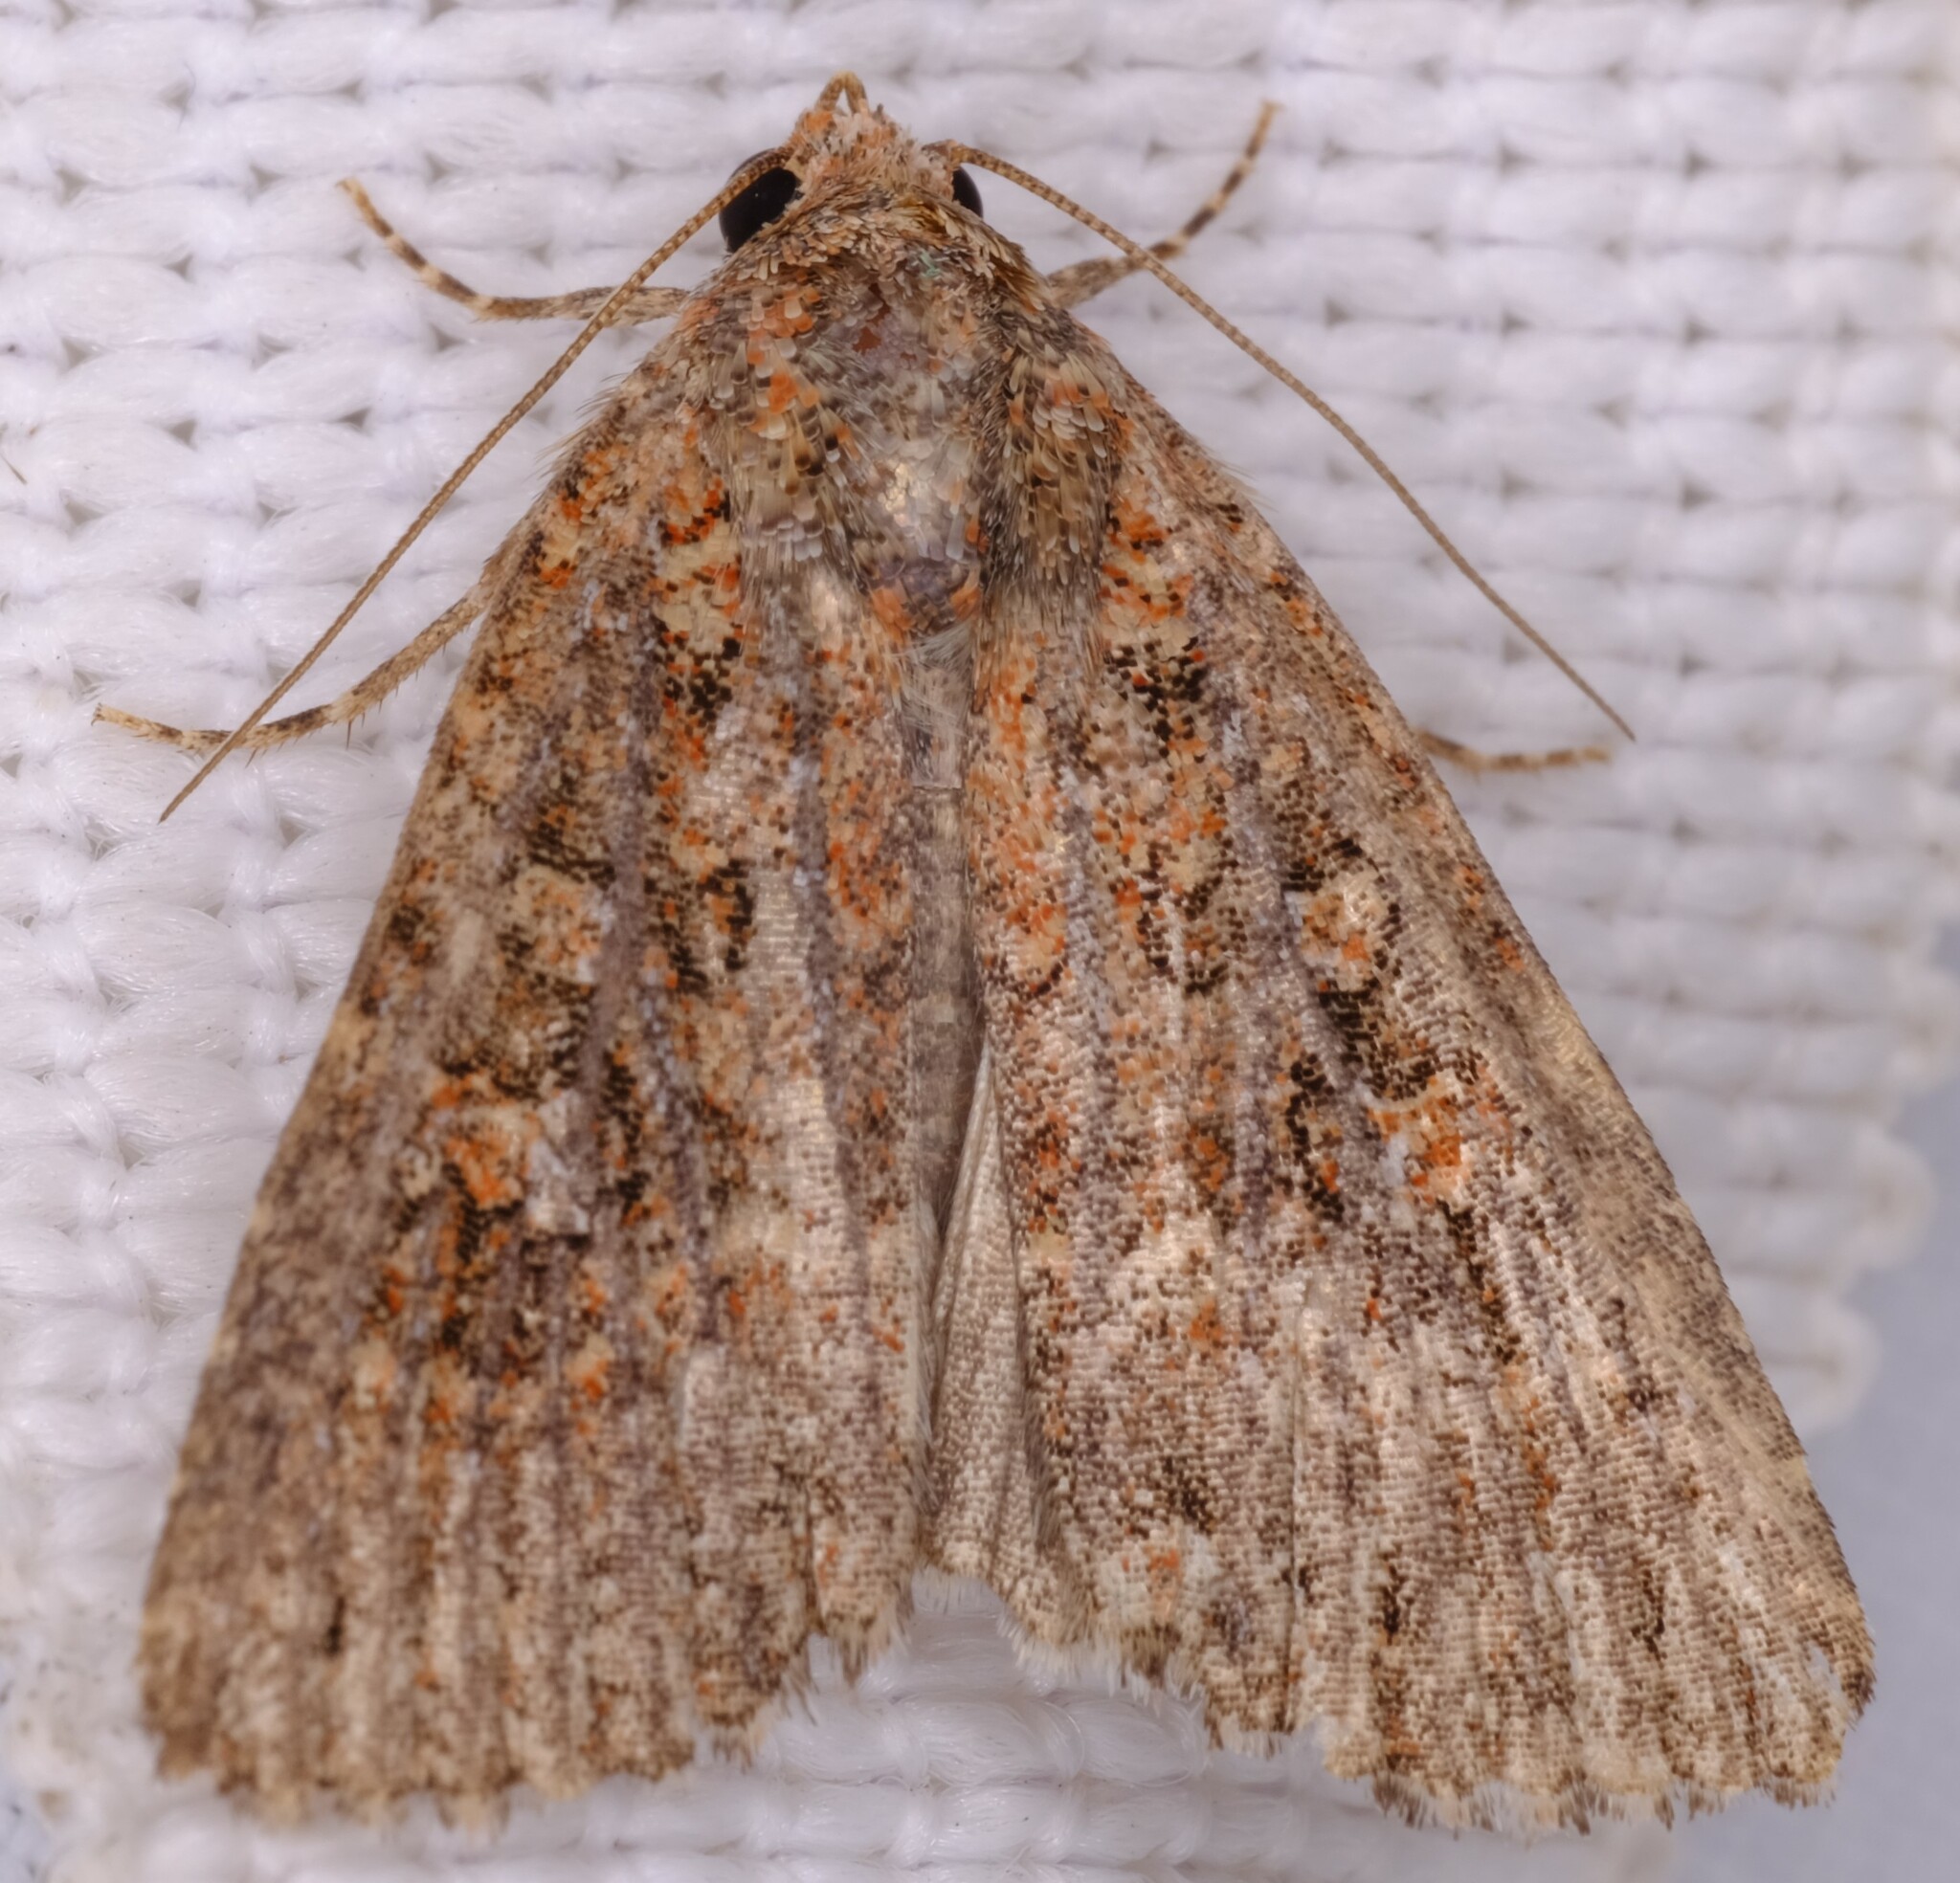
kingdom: Animalia
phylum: Arthropoda
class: Insecta
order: Lepidoptera
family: Noctuidae
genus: Hypoperigea
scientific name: Hypoperigea tonsa
